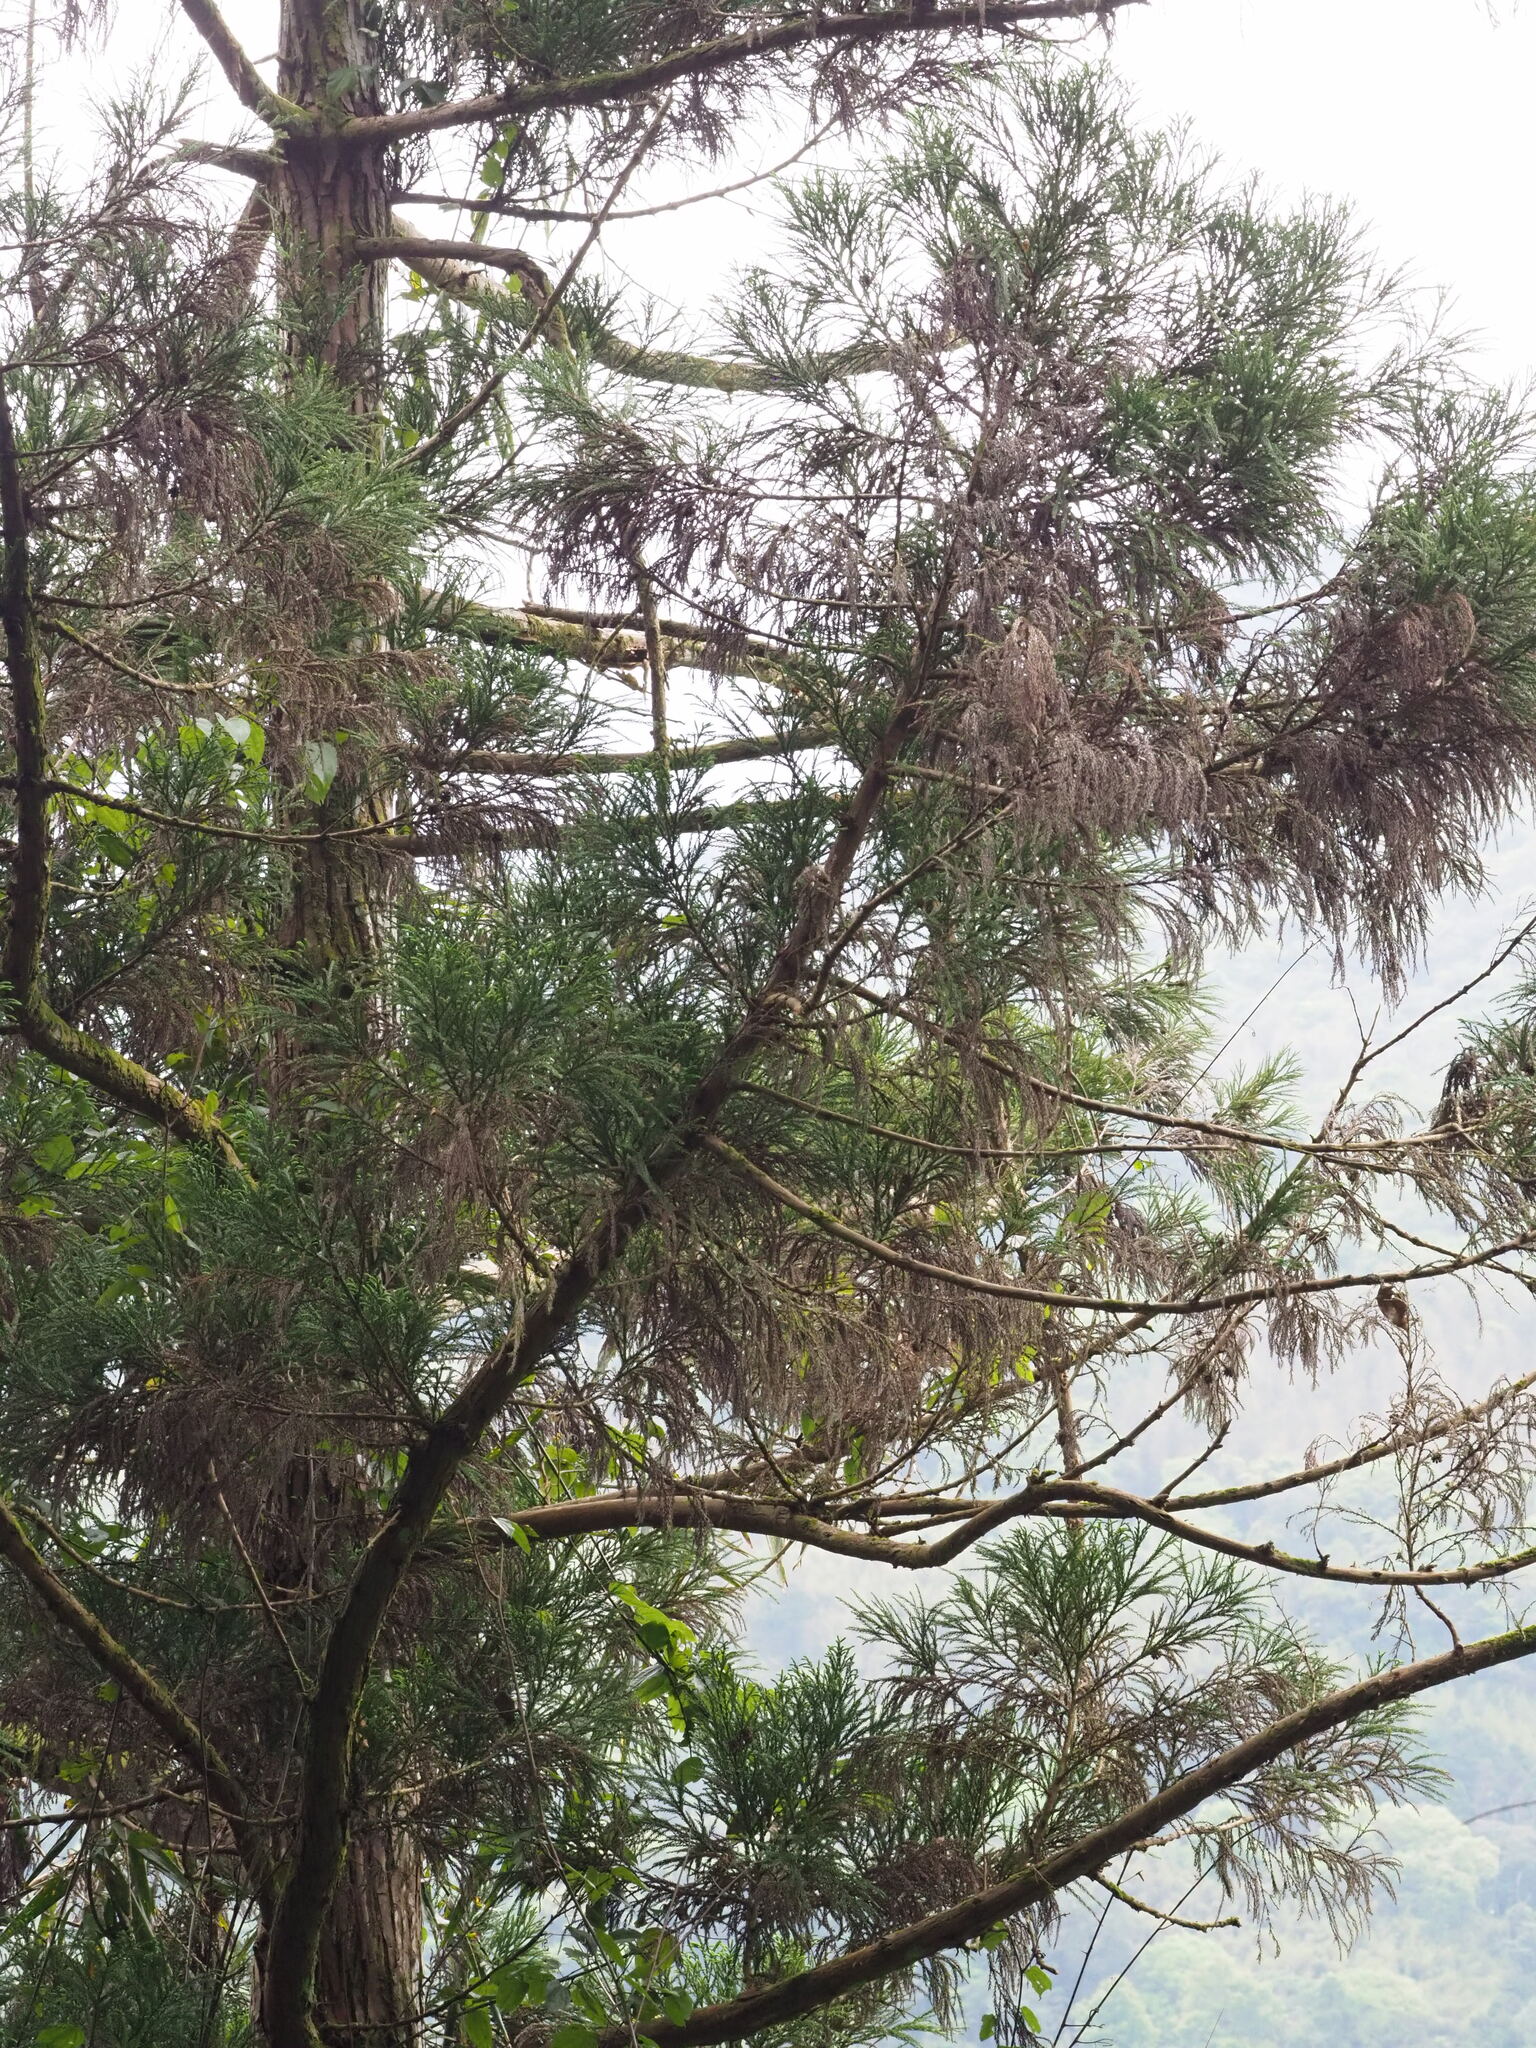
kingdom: Plantae
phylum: Tracheophyta
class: Pinopsida
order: Pinales
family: Cupressaceae
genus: Cryptomeria
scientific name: Cryptomeria japonica
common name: Japanese cedar
